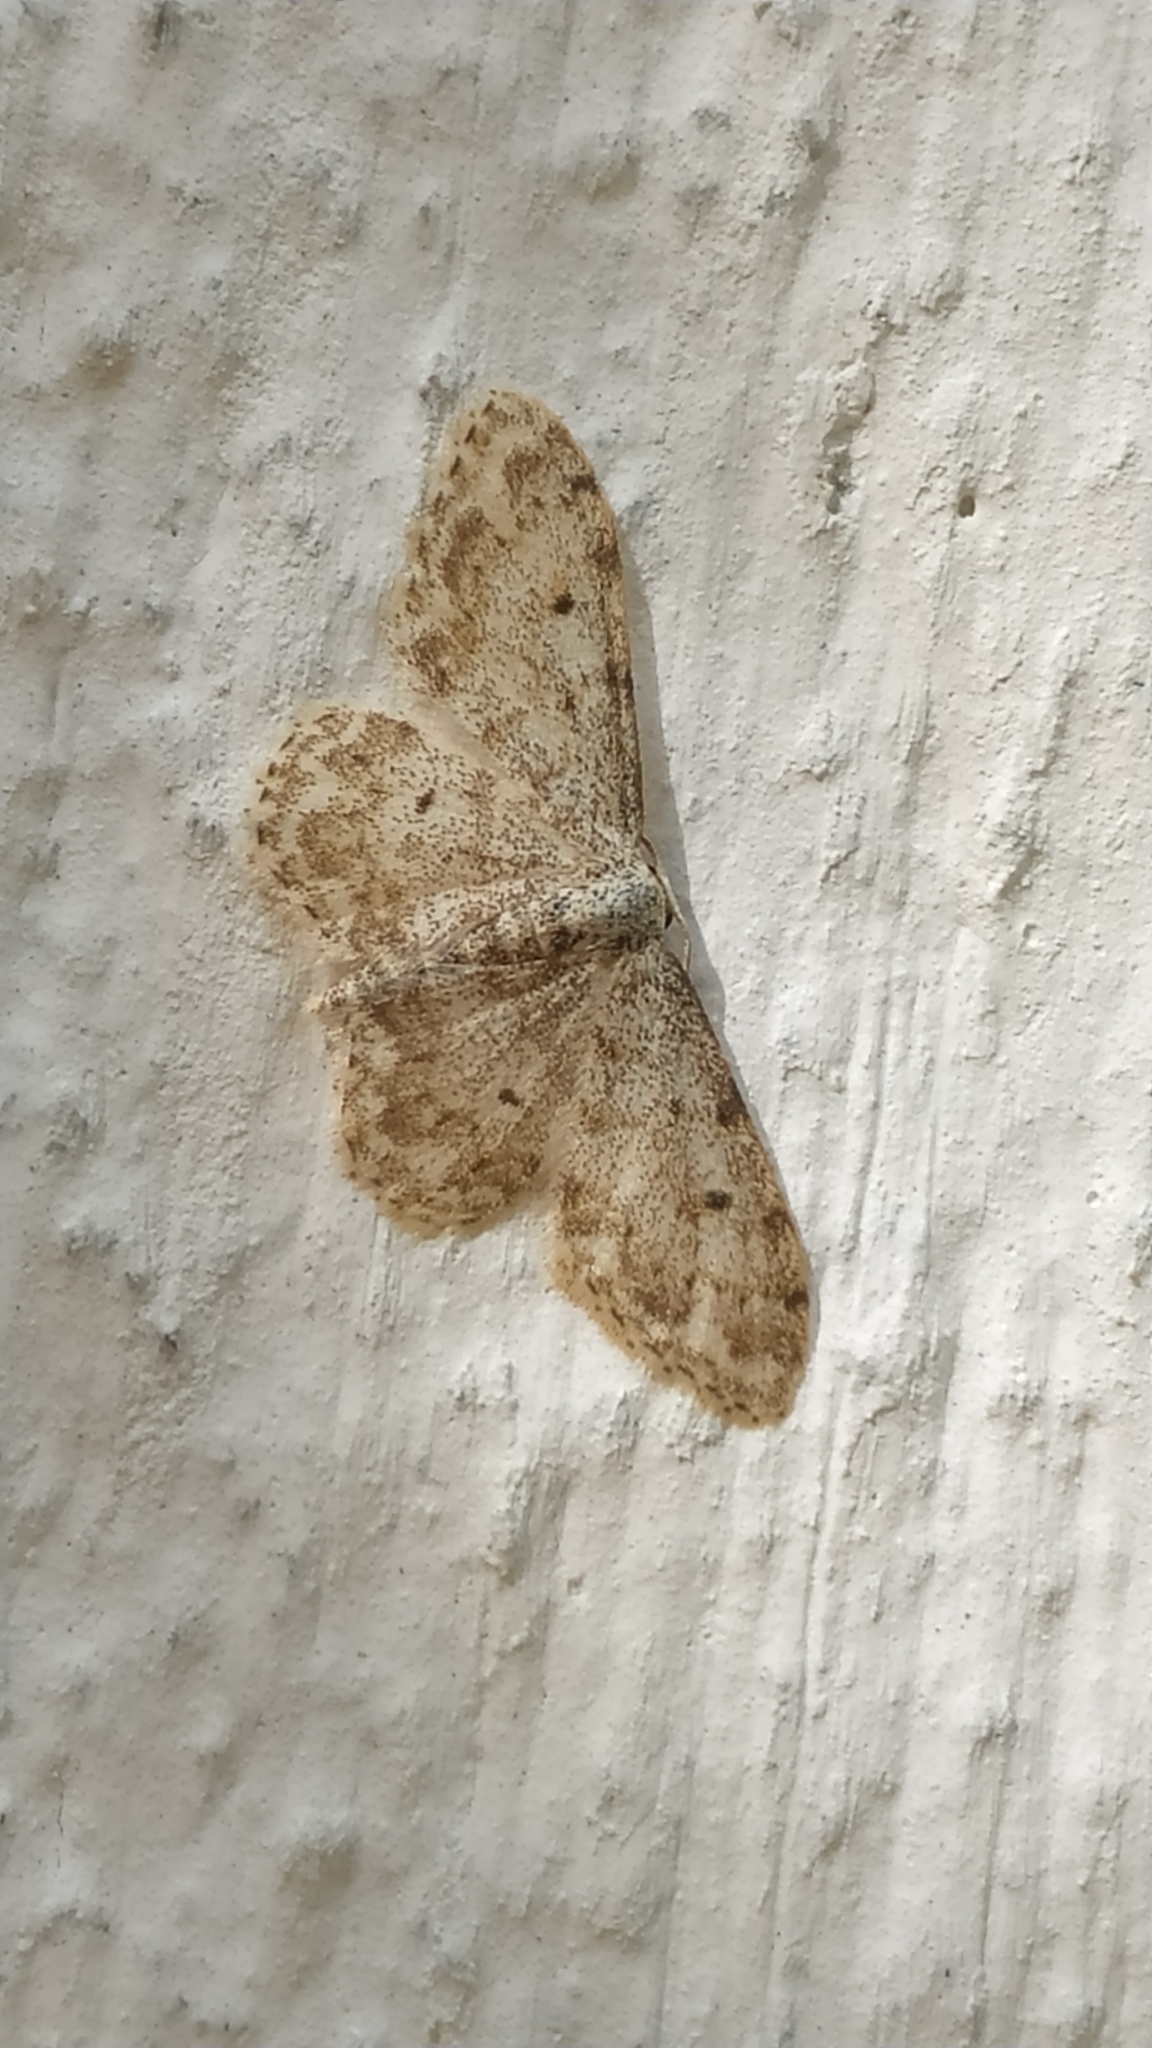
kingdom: Animalia
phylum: Arthropoda
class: Insecta
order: Lepidoptera
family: Geometridae
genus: Idaea
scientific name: Idaea camparia
